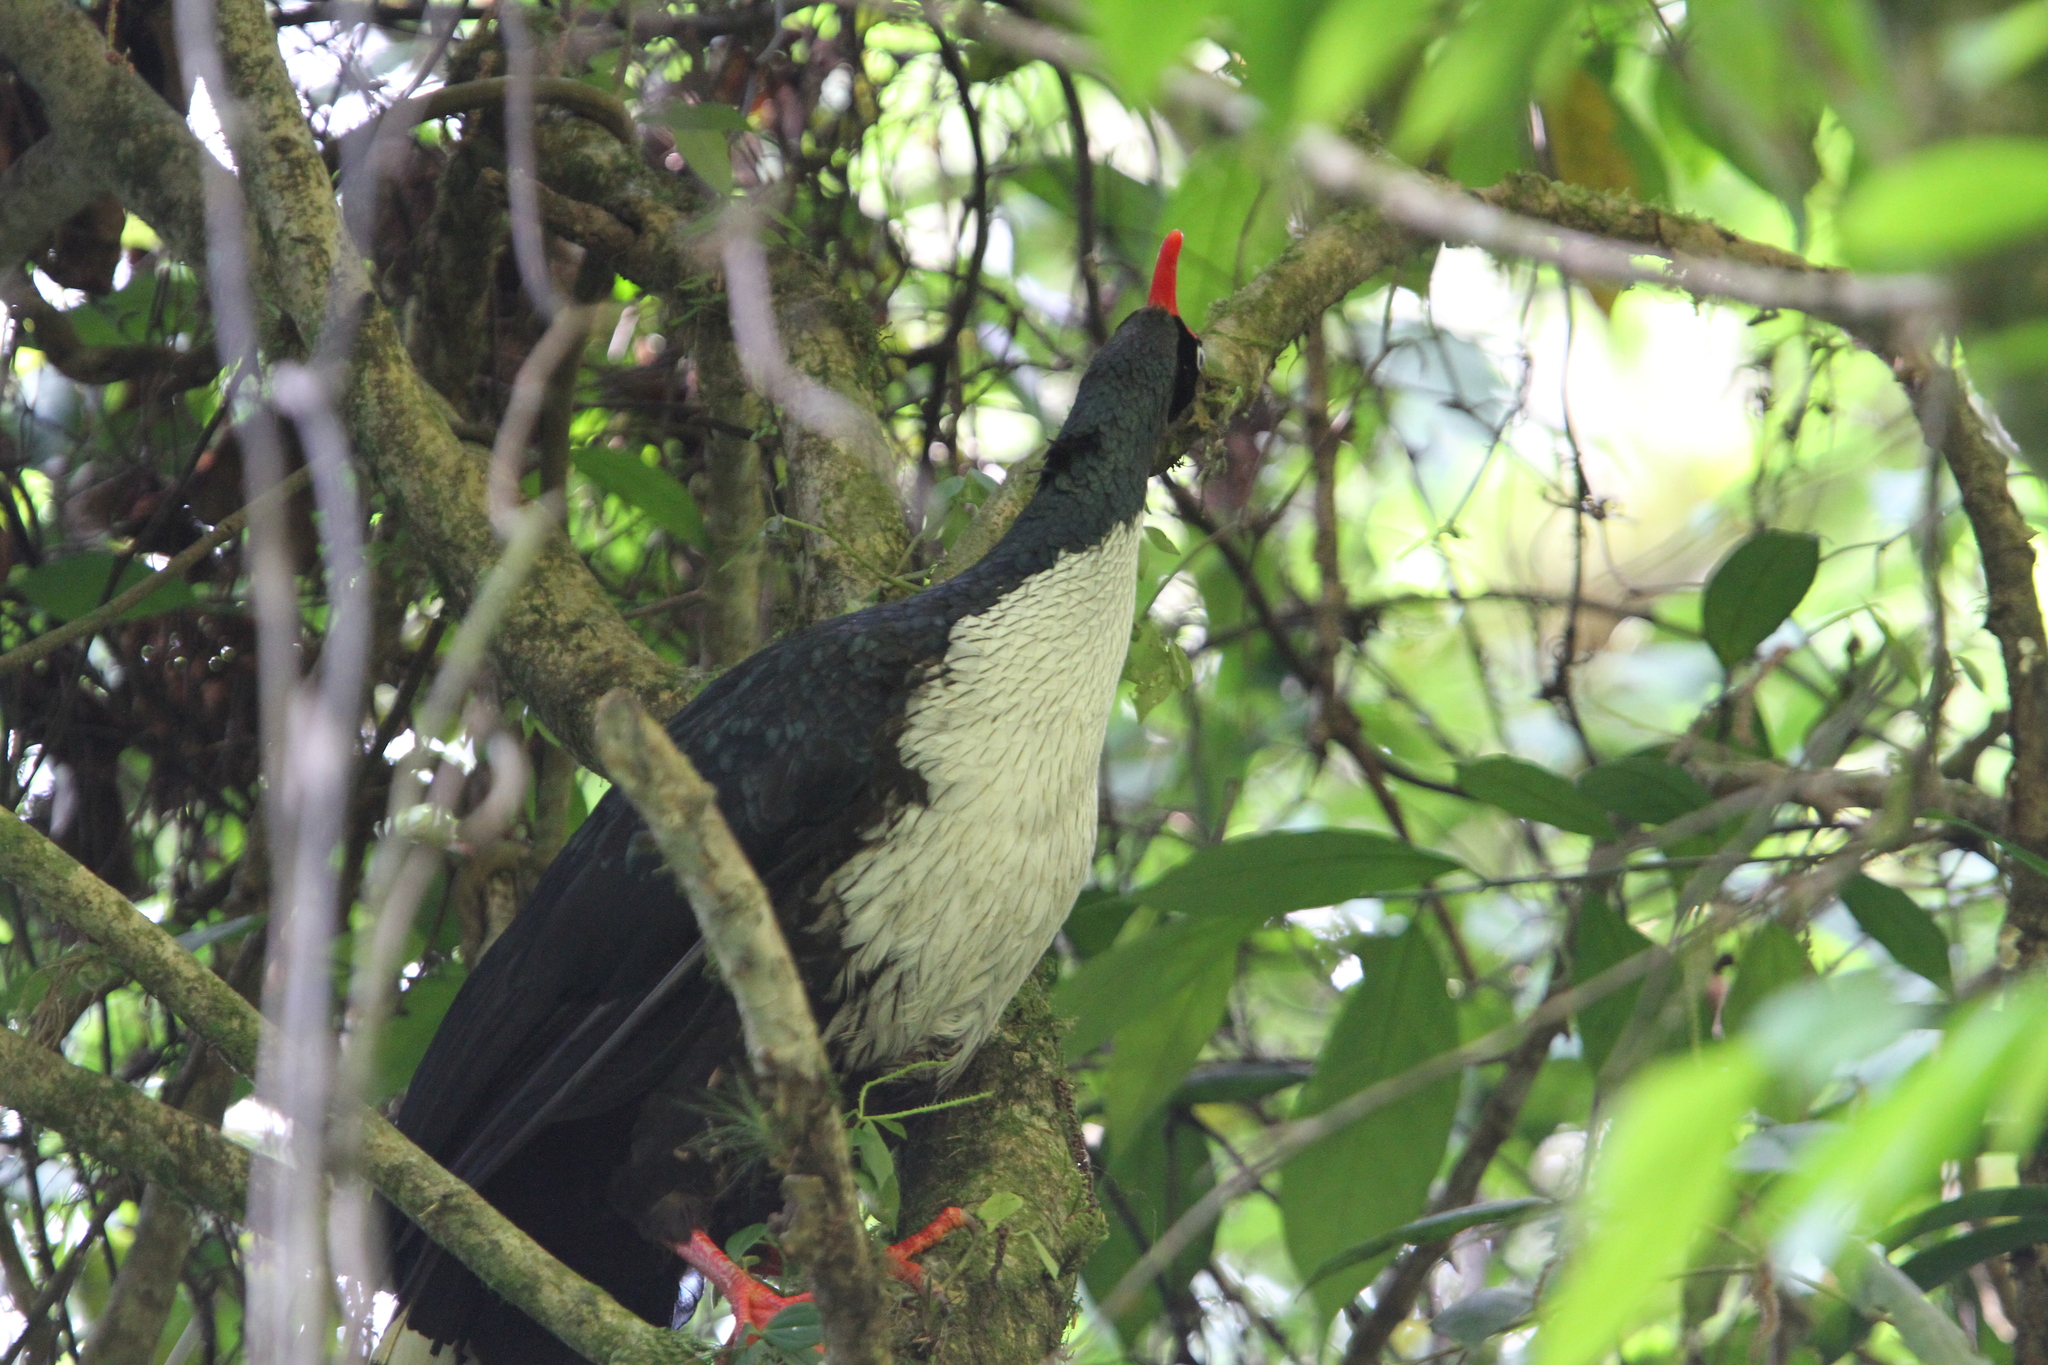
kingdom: Animalia
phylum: Chordata
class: Aves
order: Galliformes
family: Cracidae
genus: Oreophasis
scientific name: Oreophasis derbianus
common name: Horned guan
